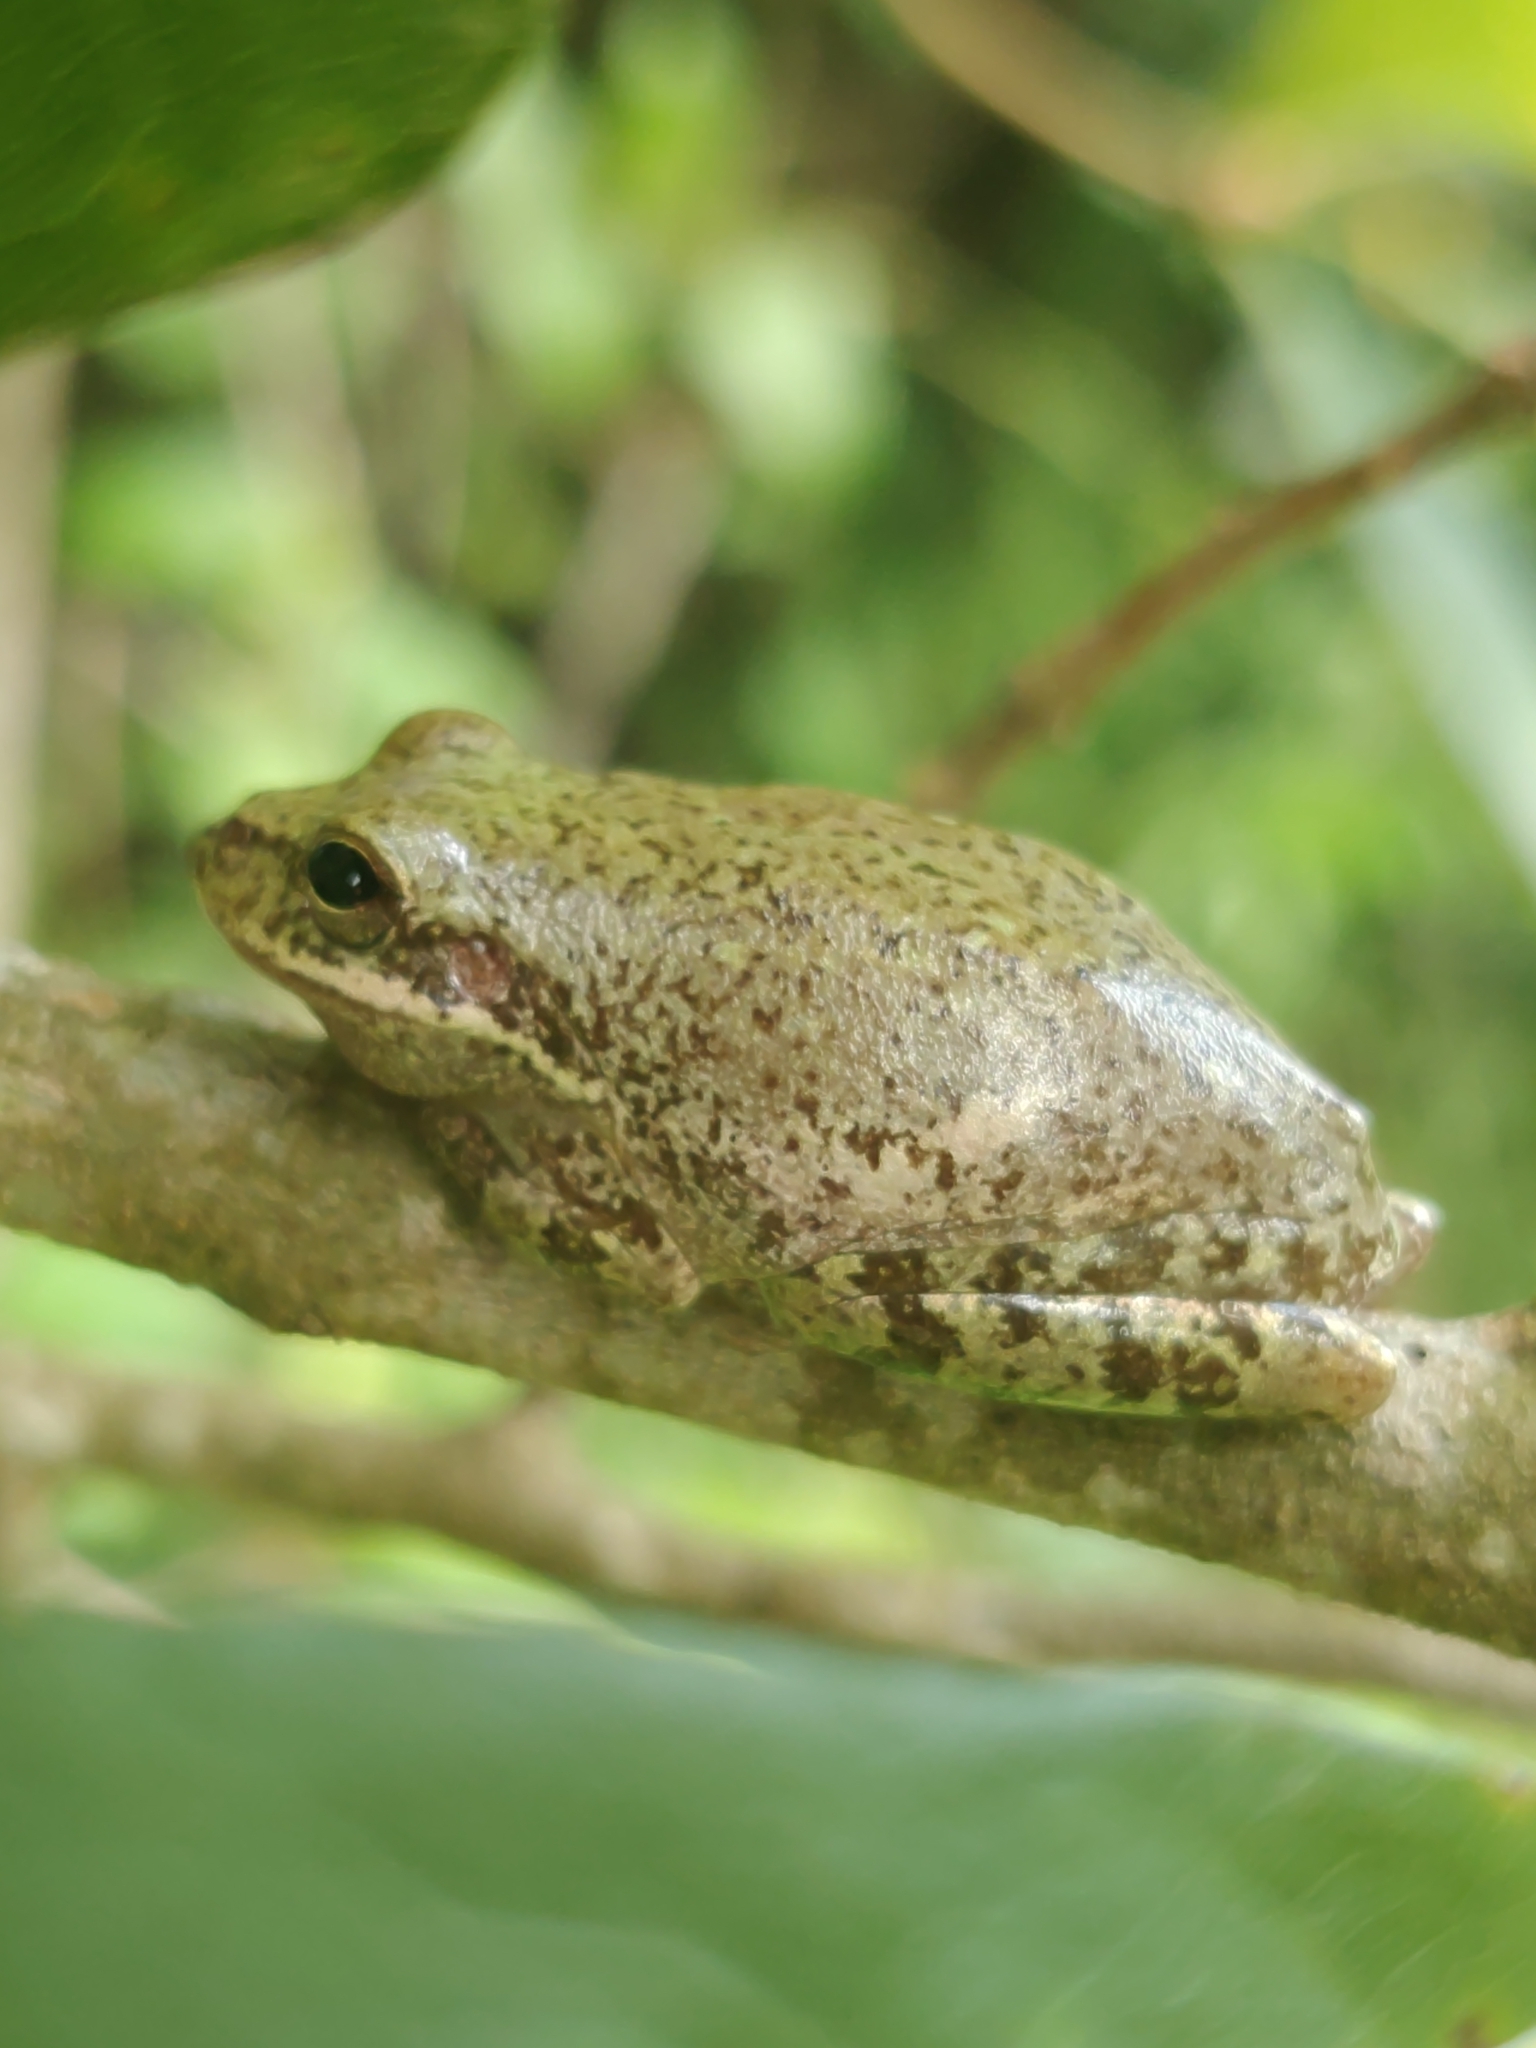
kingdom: Animalia
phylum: Chordata
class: Amphibia
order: Anura
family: Hylidae
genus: Dryophytes
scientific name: Dryophytes squirellus
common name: Squirrel treefrog
